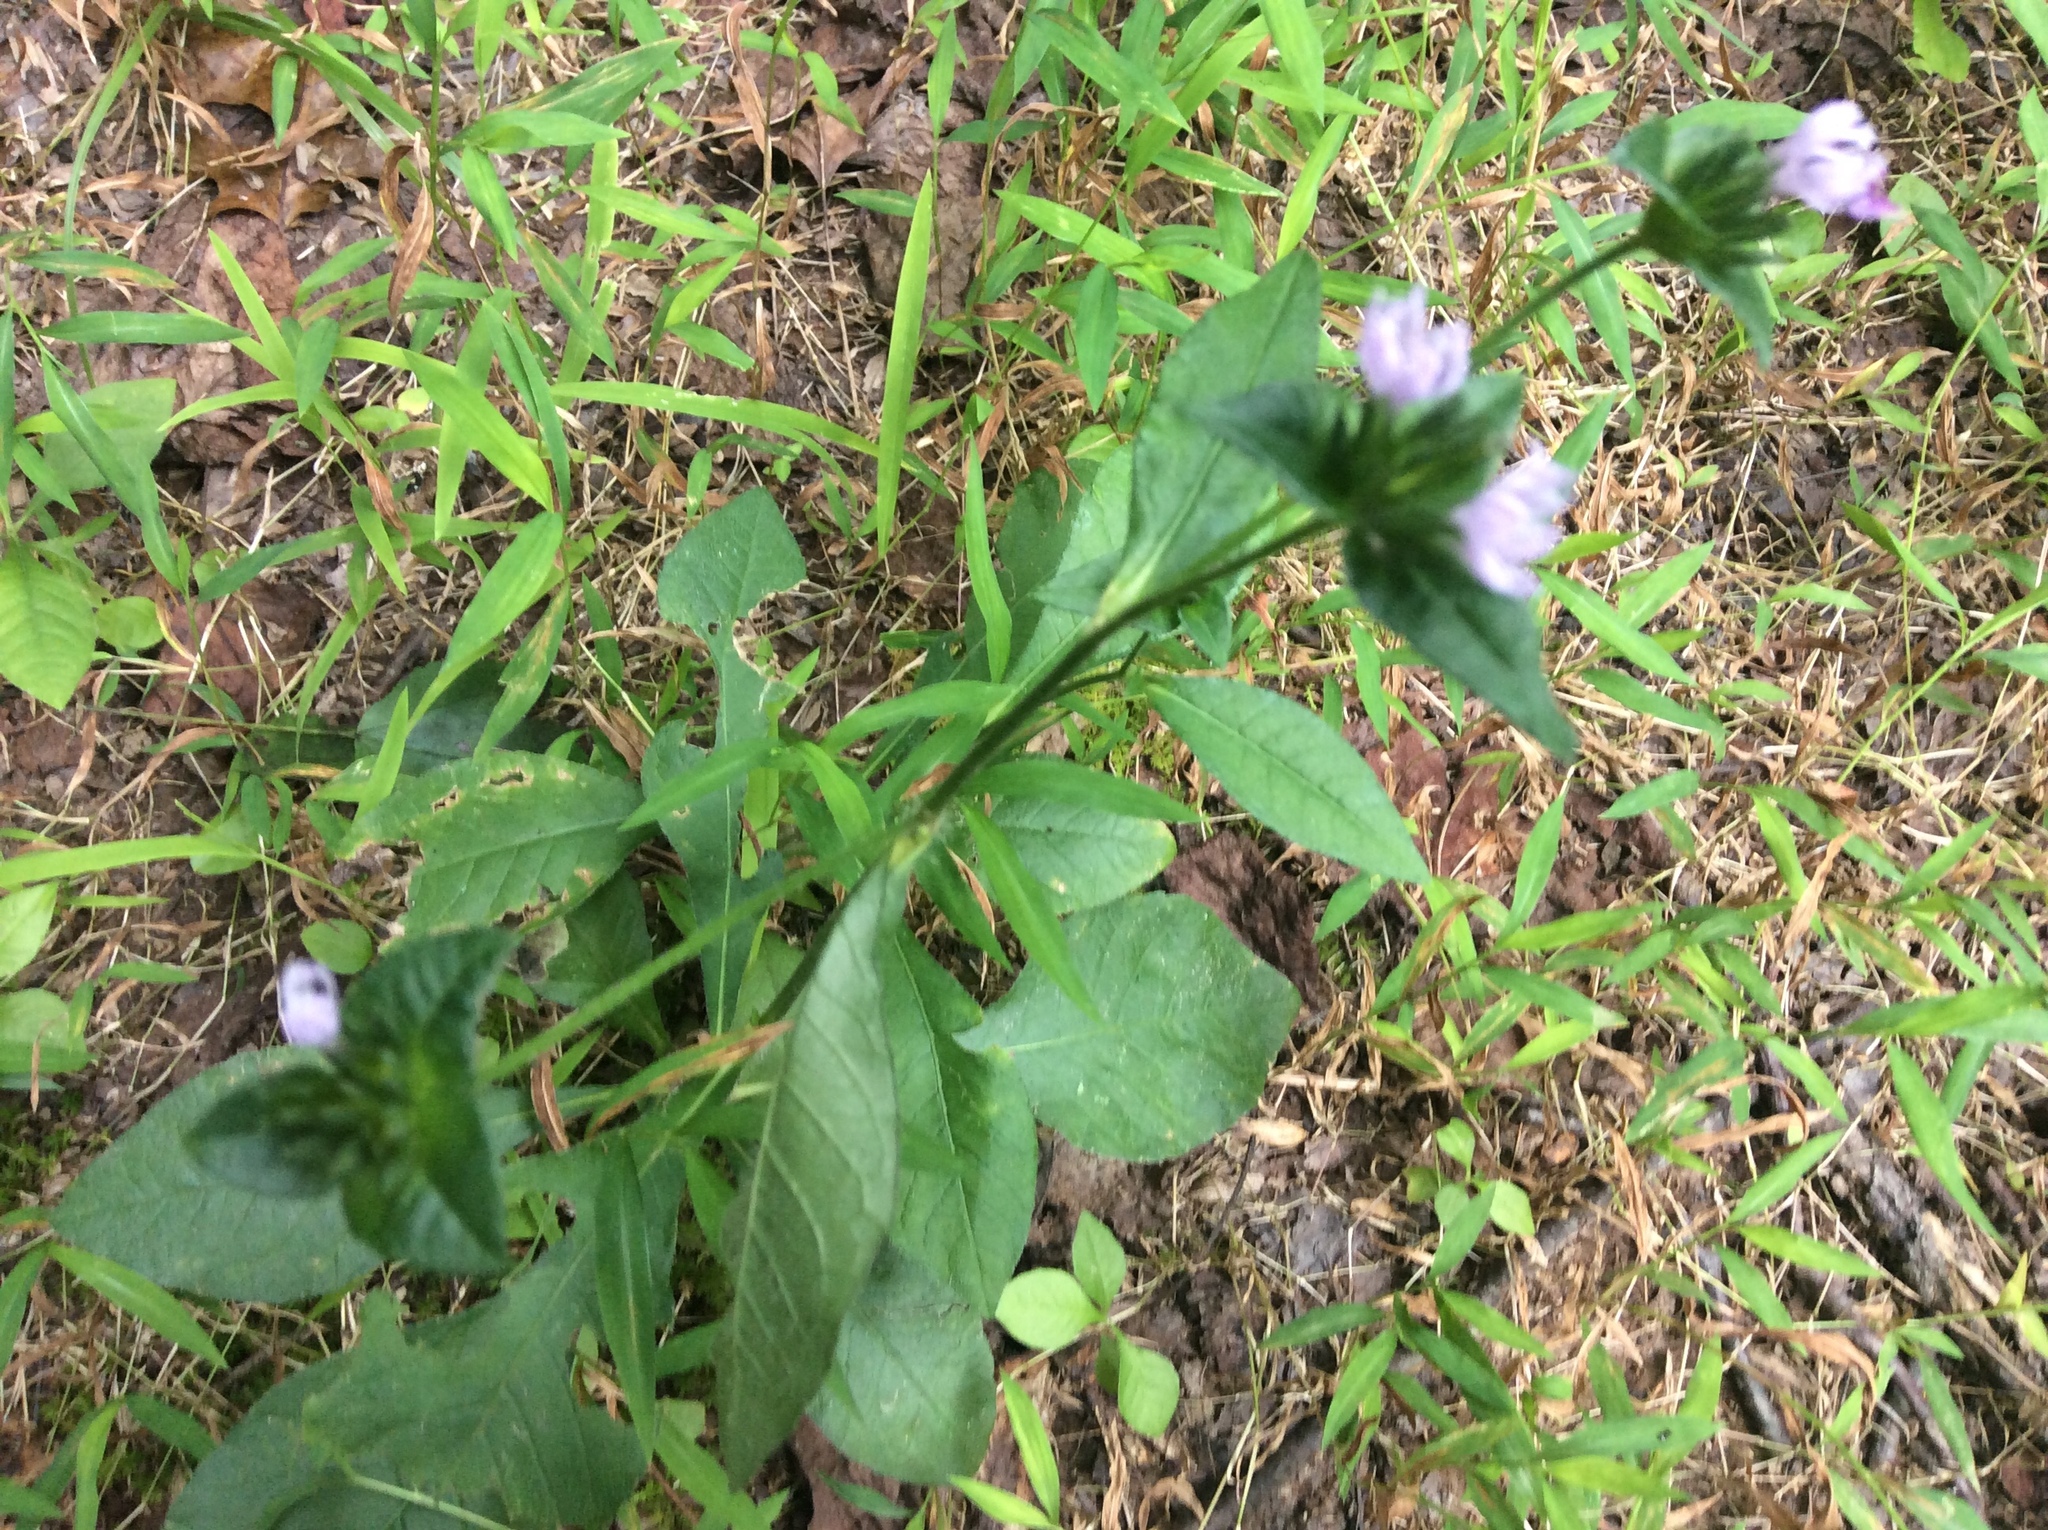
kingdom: Plantae
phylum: Tracheophyta
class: Magnoliopsida
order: Asterales
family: Asteraceae
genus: Elephantopus
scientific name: Elephantopus carolinianus
